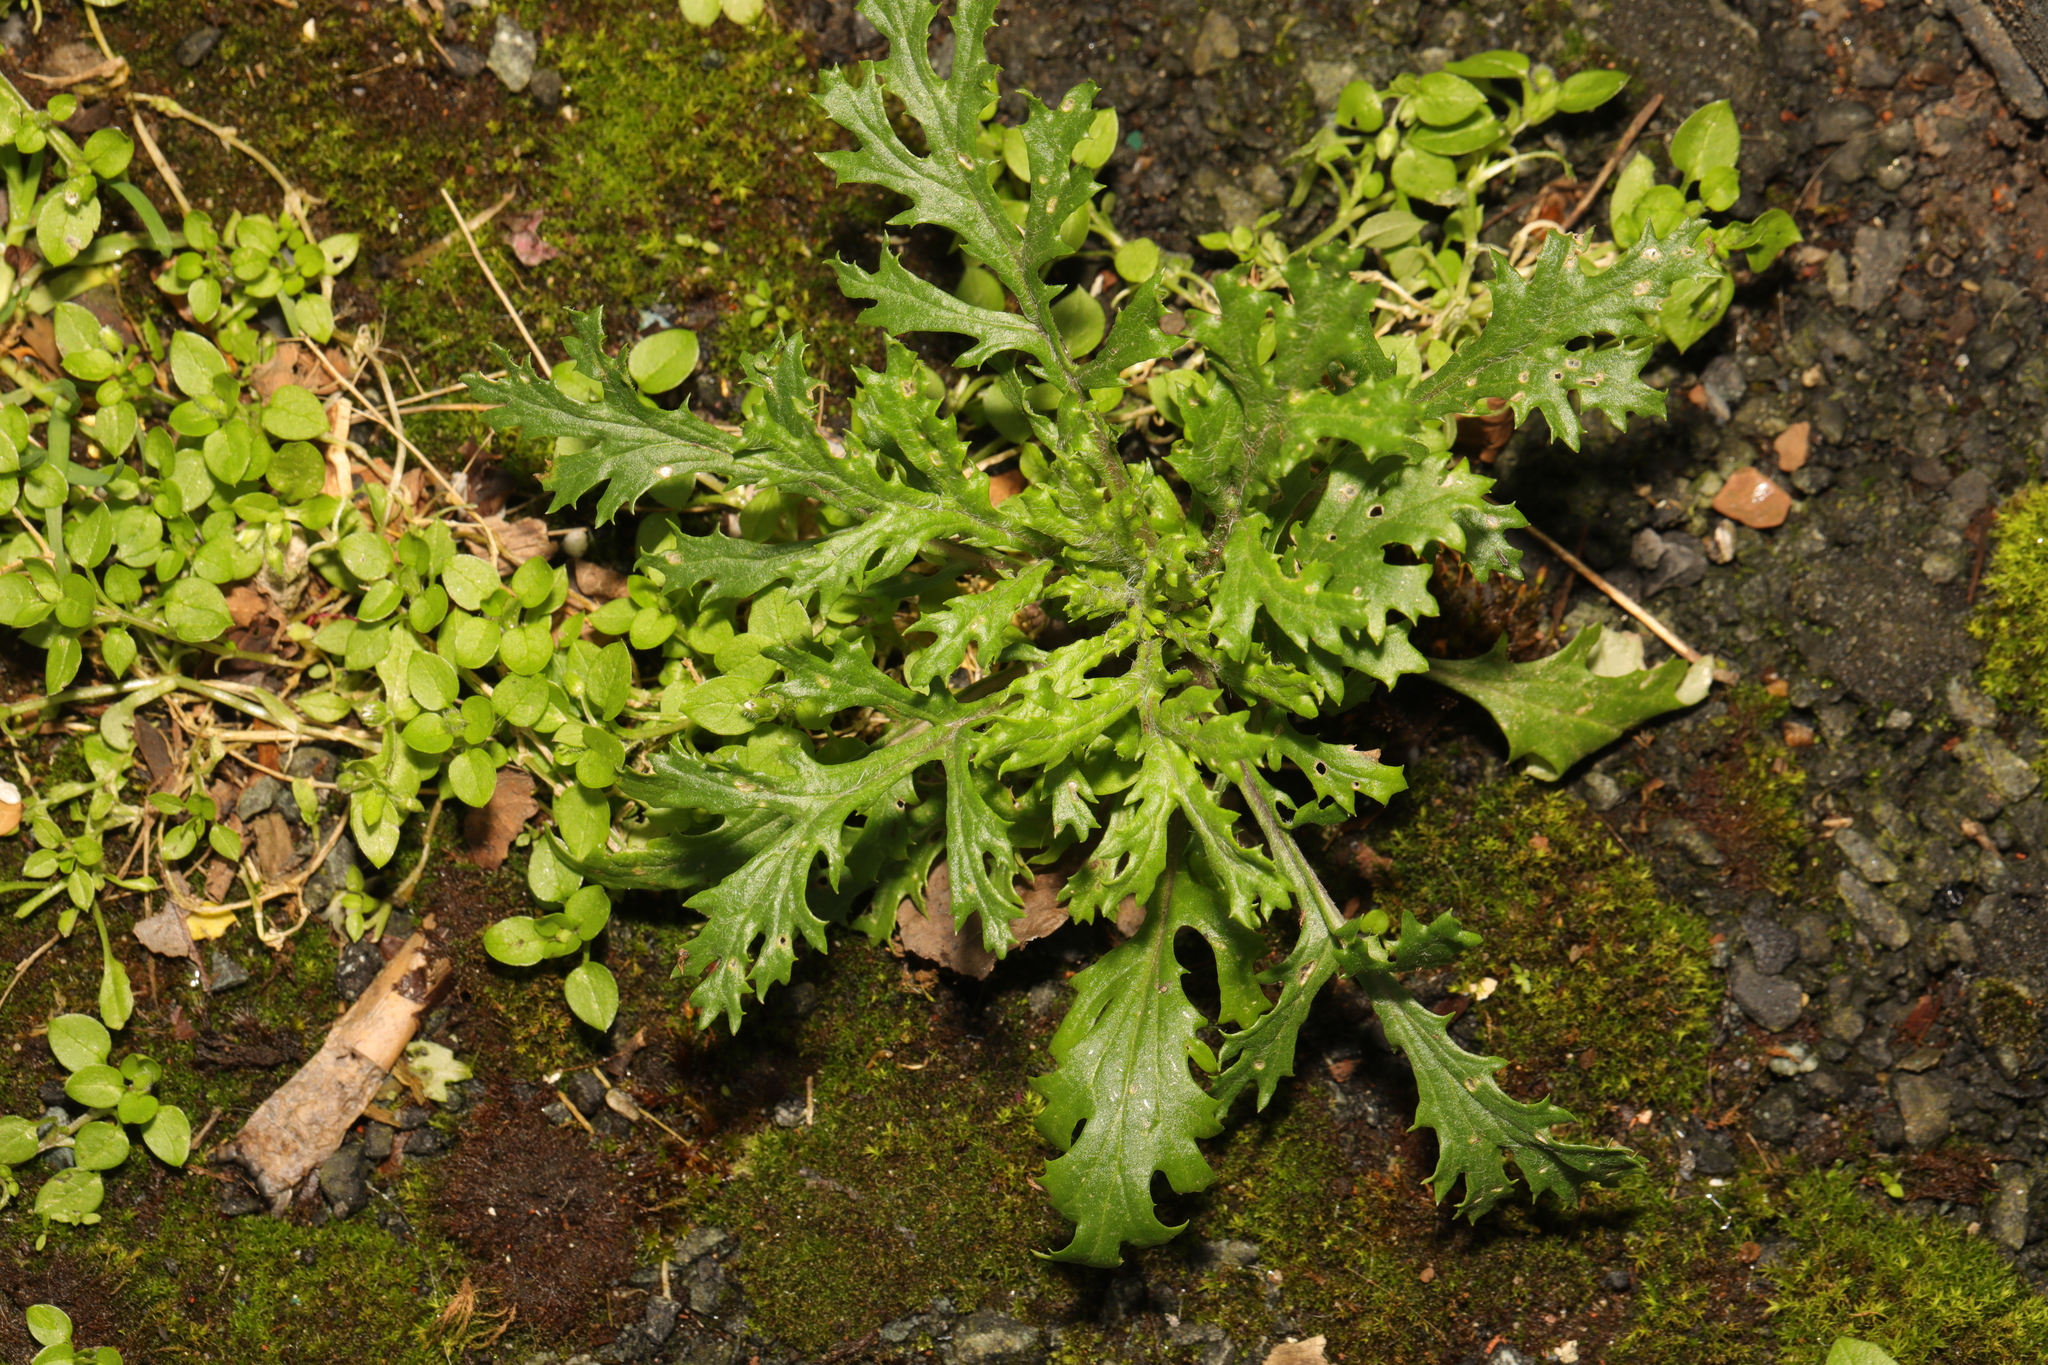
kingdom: Plantae
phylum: Tracheophyta
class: Magnoliopsida
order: Asterales
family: Asteraceae
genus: Senecio
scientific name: Senecio vulgaris
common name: Old-man-in-the-spring
